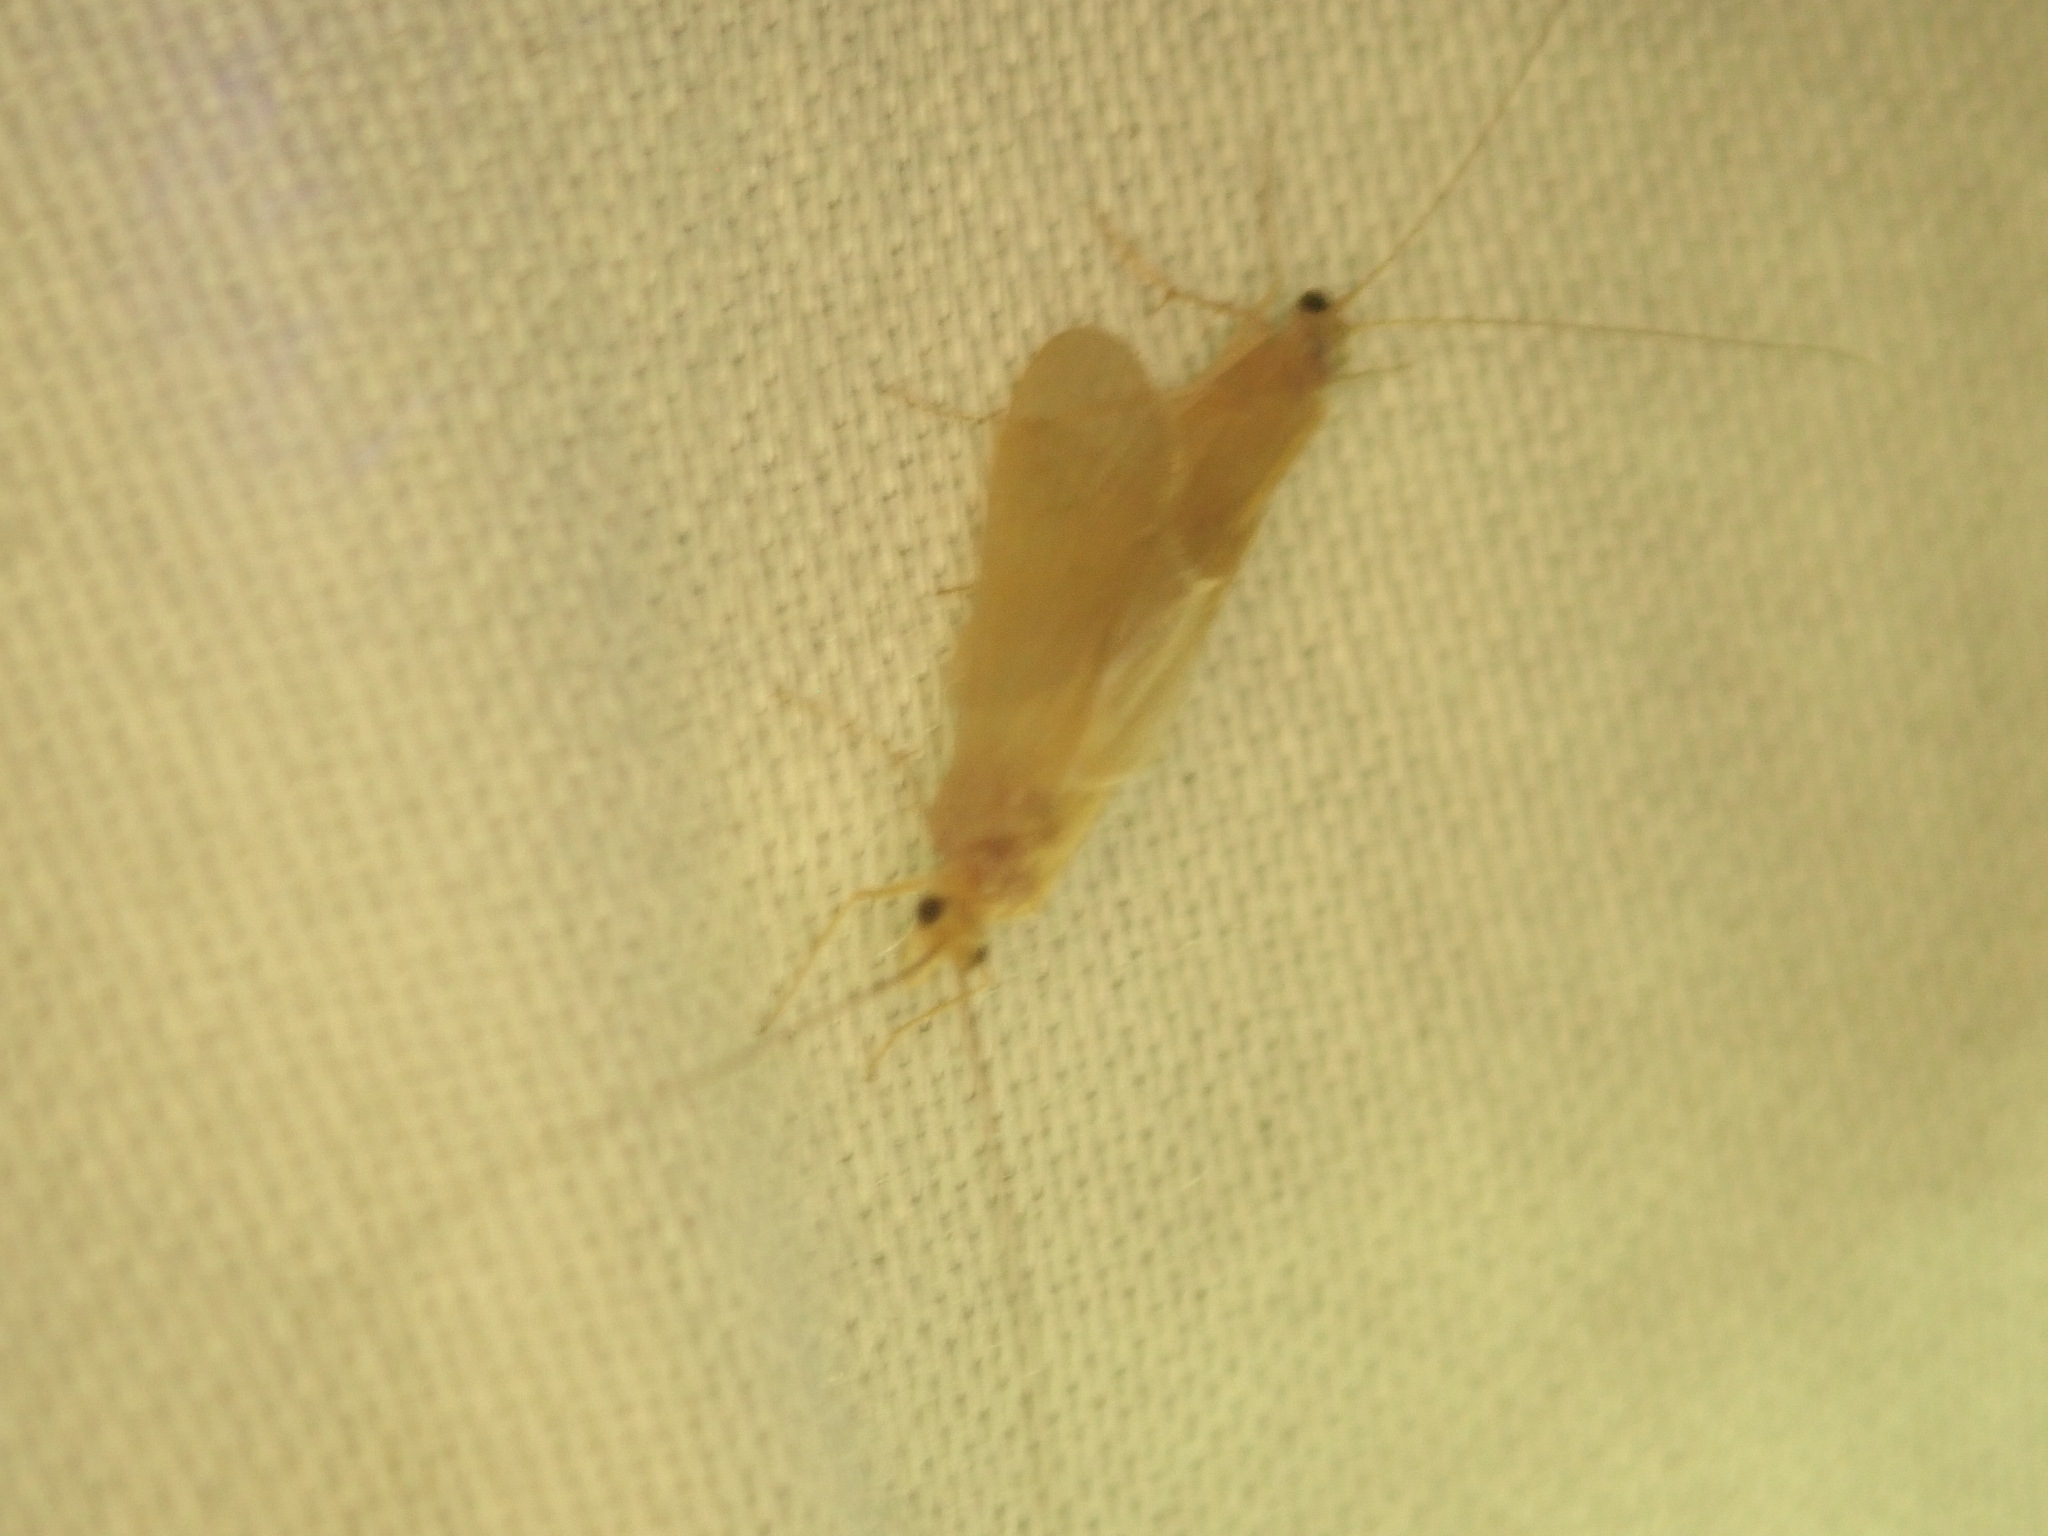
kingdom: Animalia
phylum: Arthropoda
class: Insecta
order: Trichoptera
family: Hydropsychidae
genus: Potamyia
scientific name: Potamyia flava
